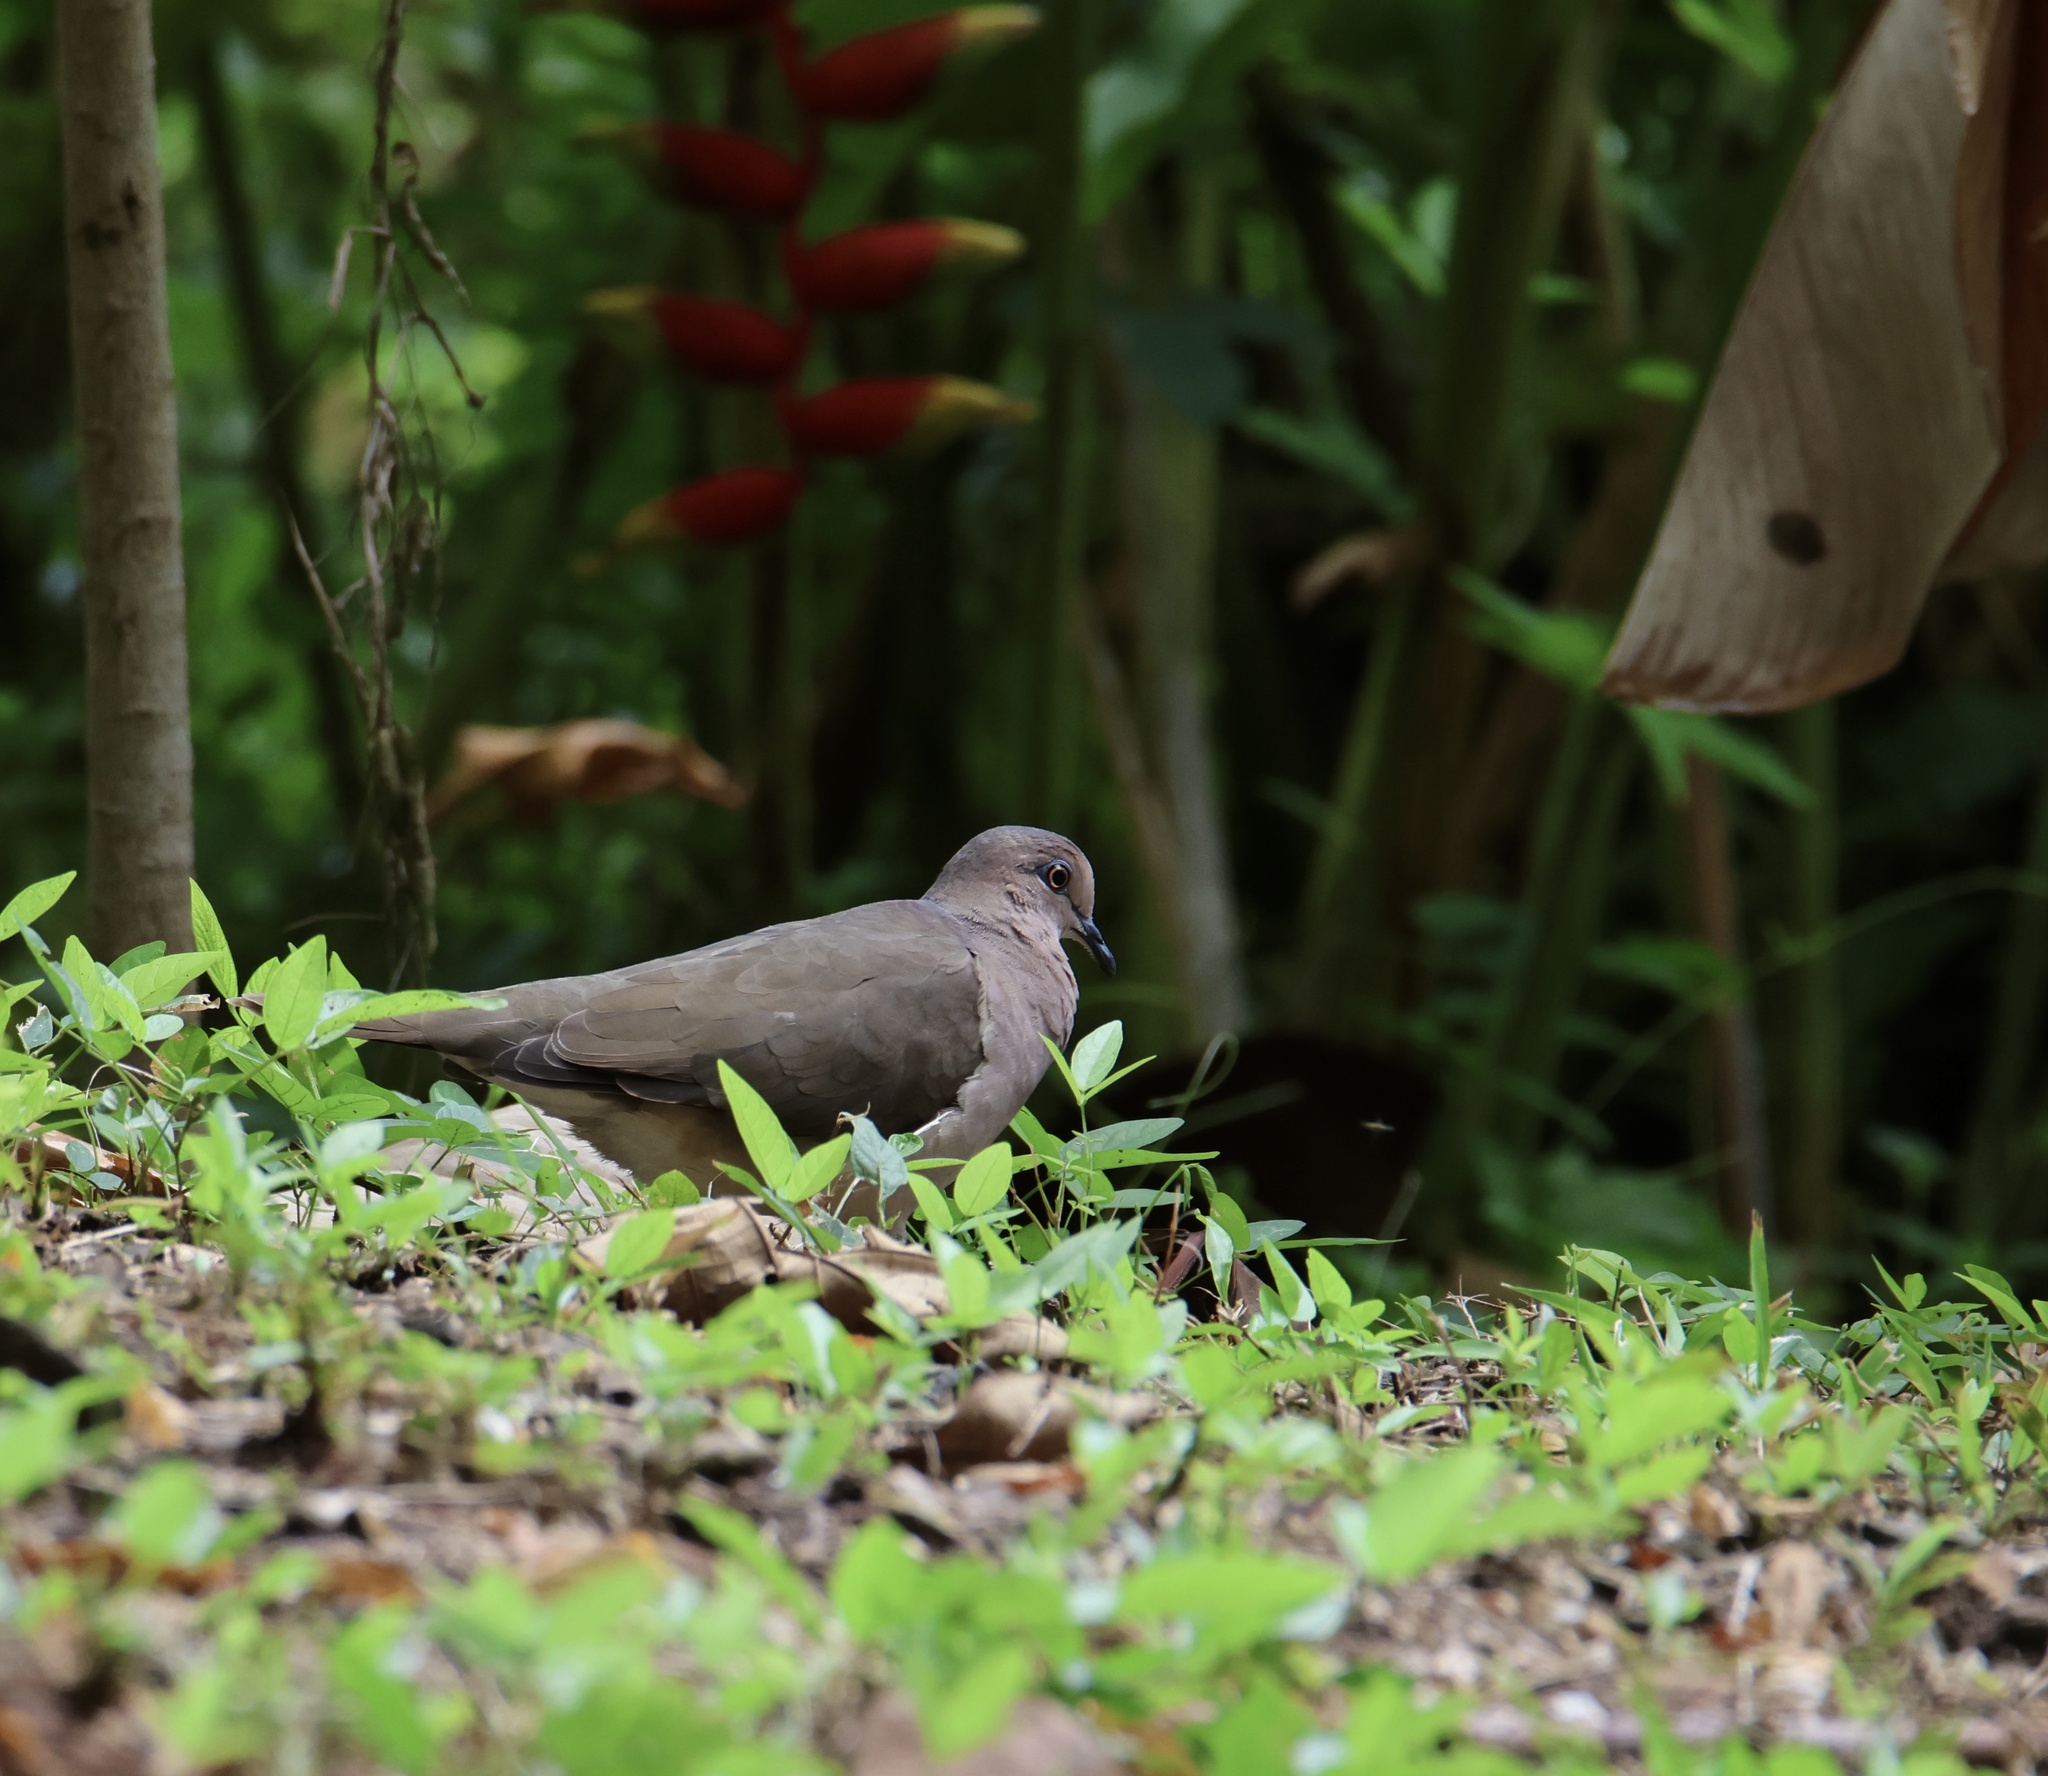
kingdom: Animalia
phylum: Chordata
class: Aves
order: Columbiformes
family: Columbidae
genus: Leptotila
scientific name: Leptotila verreauxi
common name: White-tipped dove
